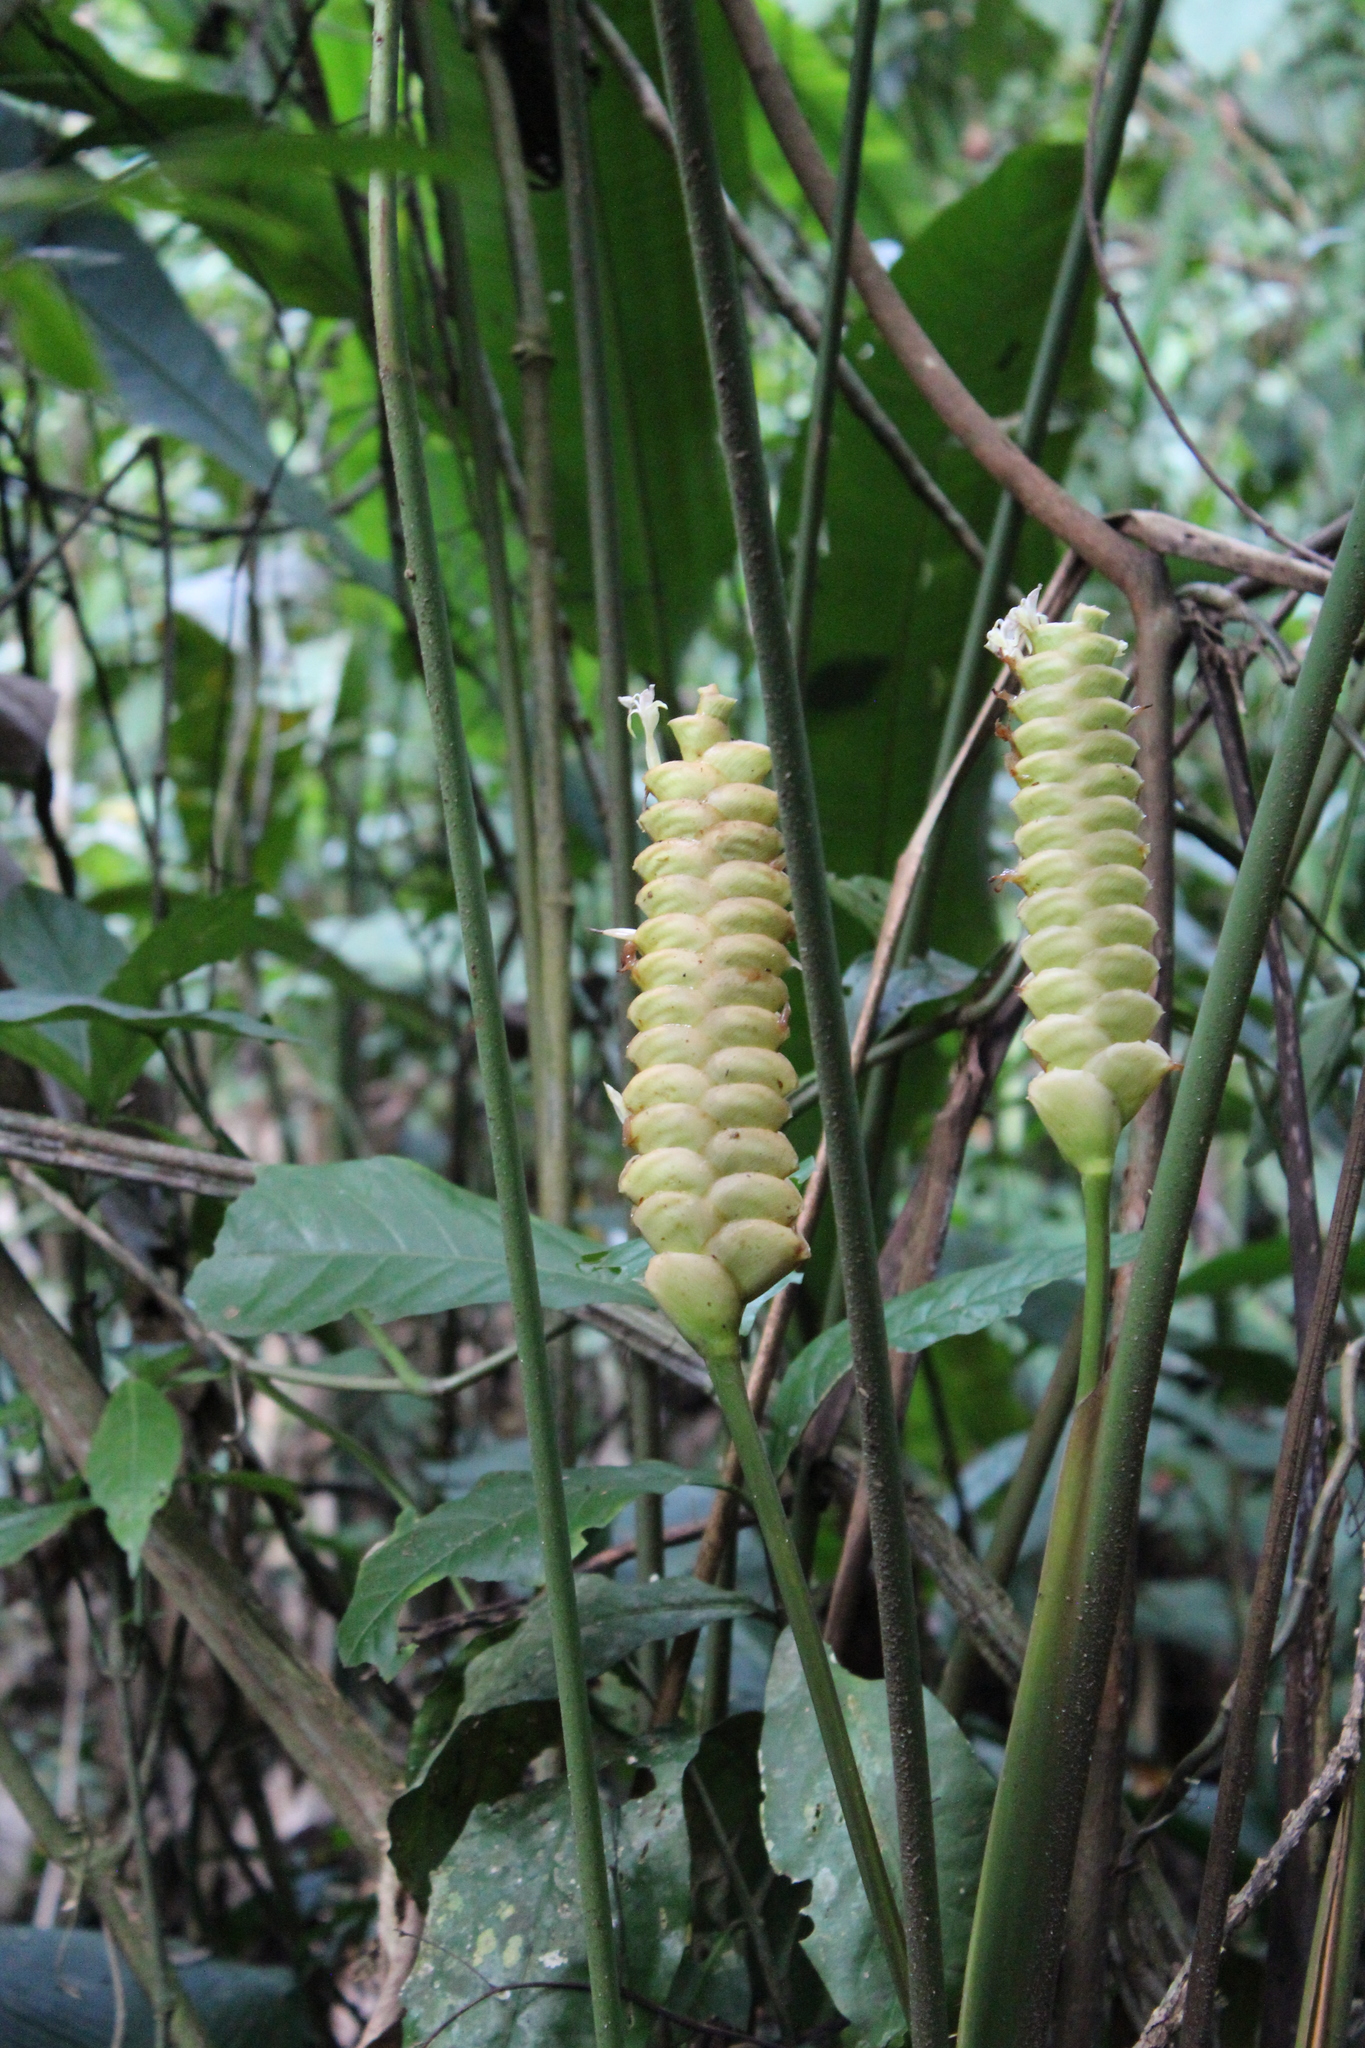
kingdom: Plantae
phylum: Tracheophyta
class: Liliopsida
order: Zingiberales
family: Marantaceae
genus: Calathea
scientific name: Calathea crotalifera
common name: Rattlesnake plant
